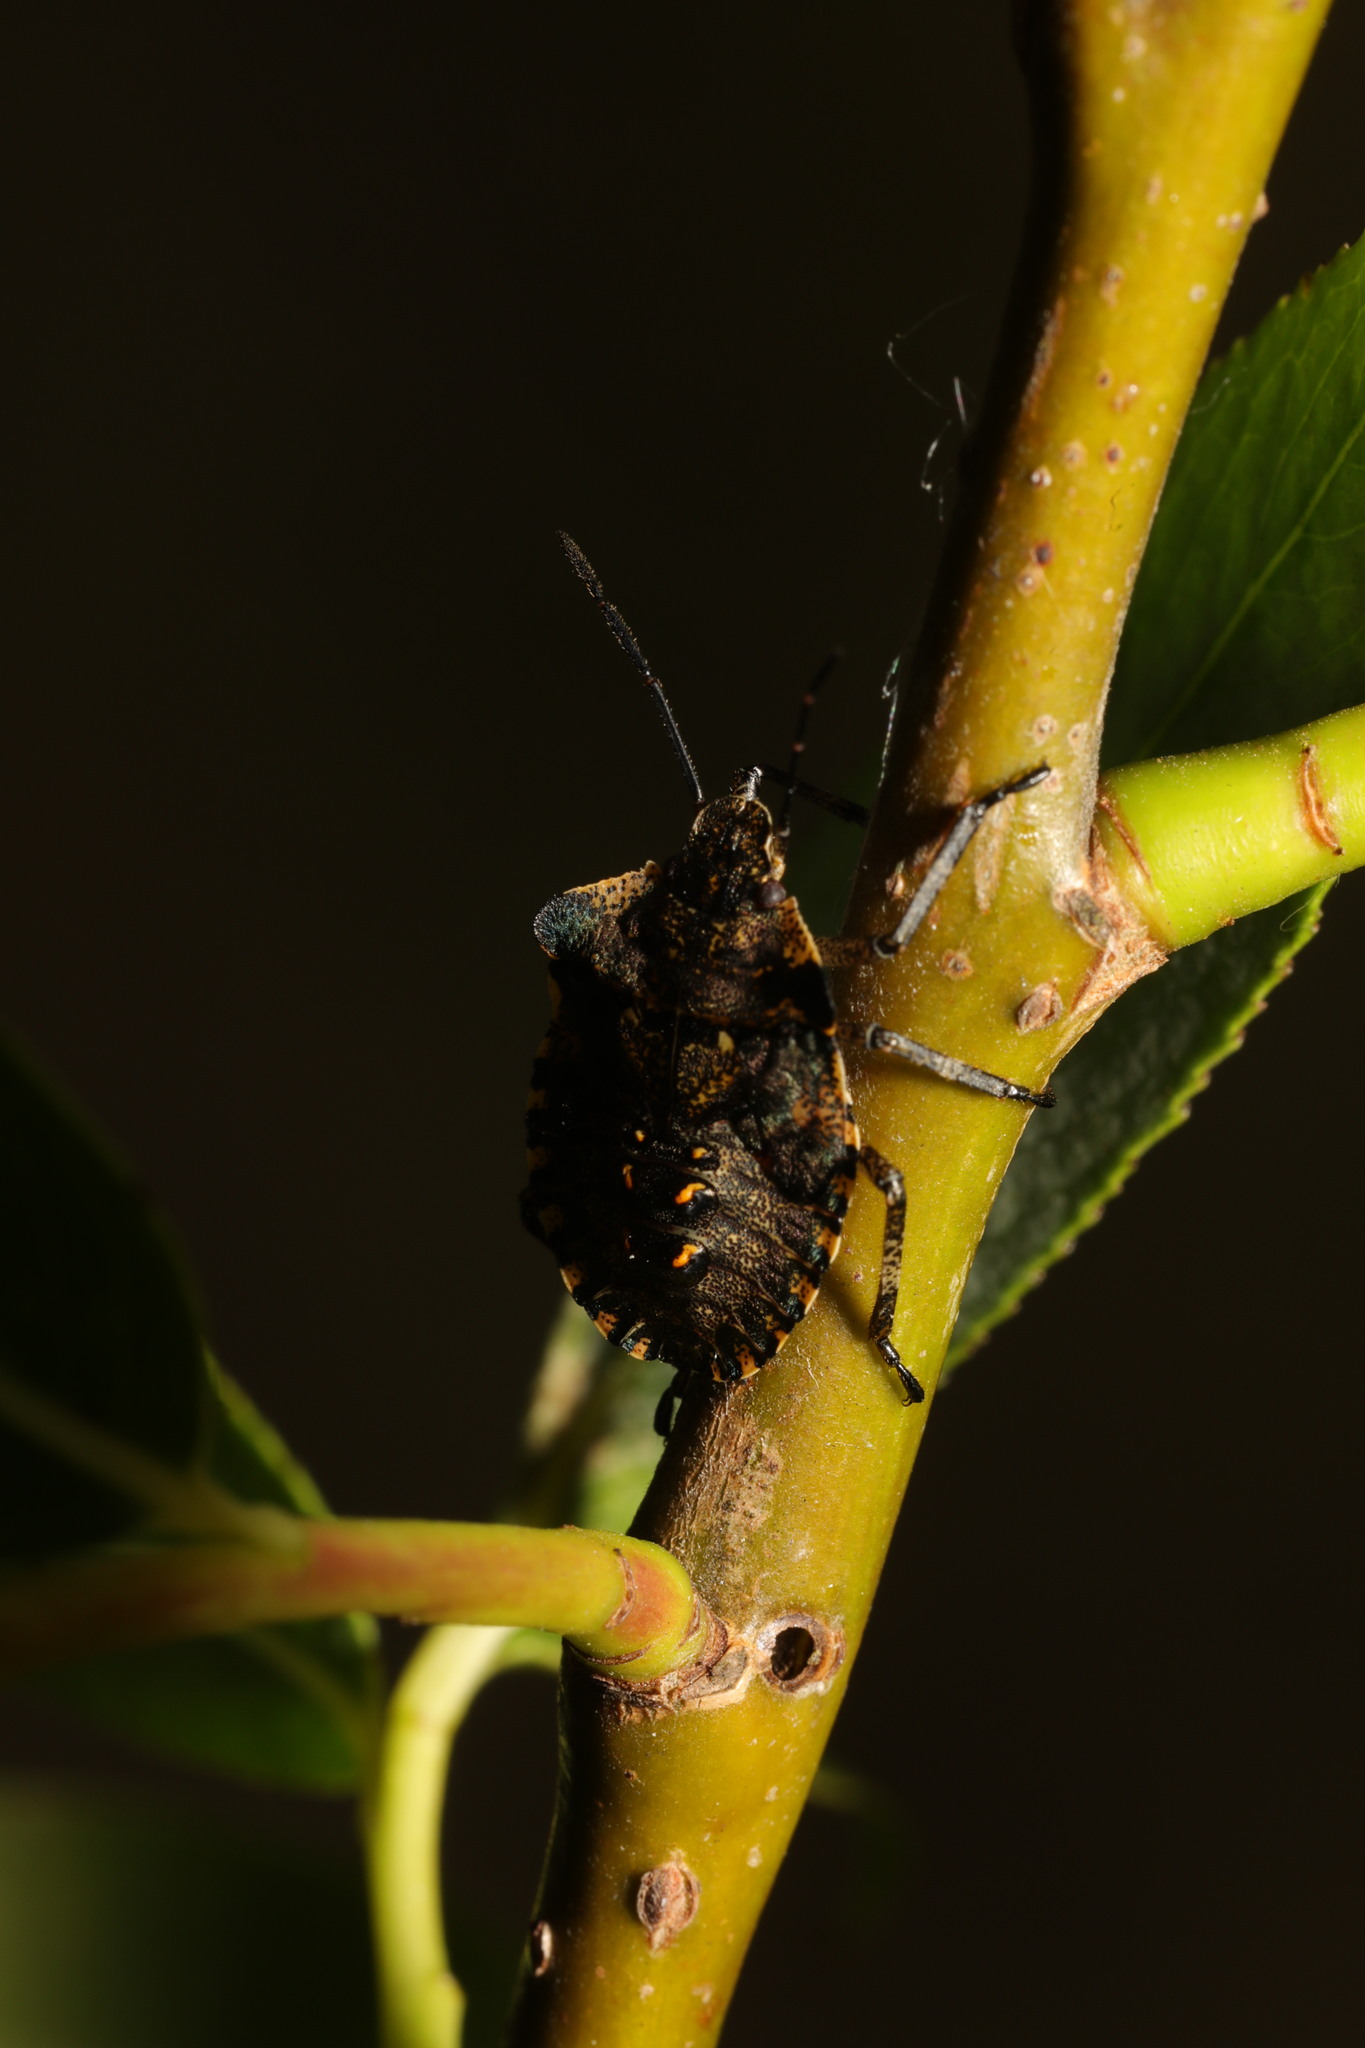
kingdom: Animalia
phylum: Arthropoda
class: Insecta
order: Hemiptera
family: Pentatomidae
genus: Pentatoma
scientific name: Pentatoma rufipes
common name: Forest bug
